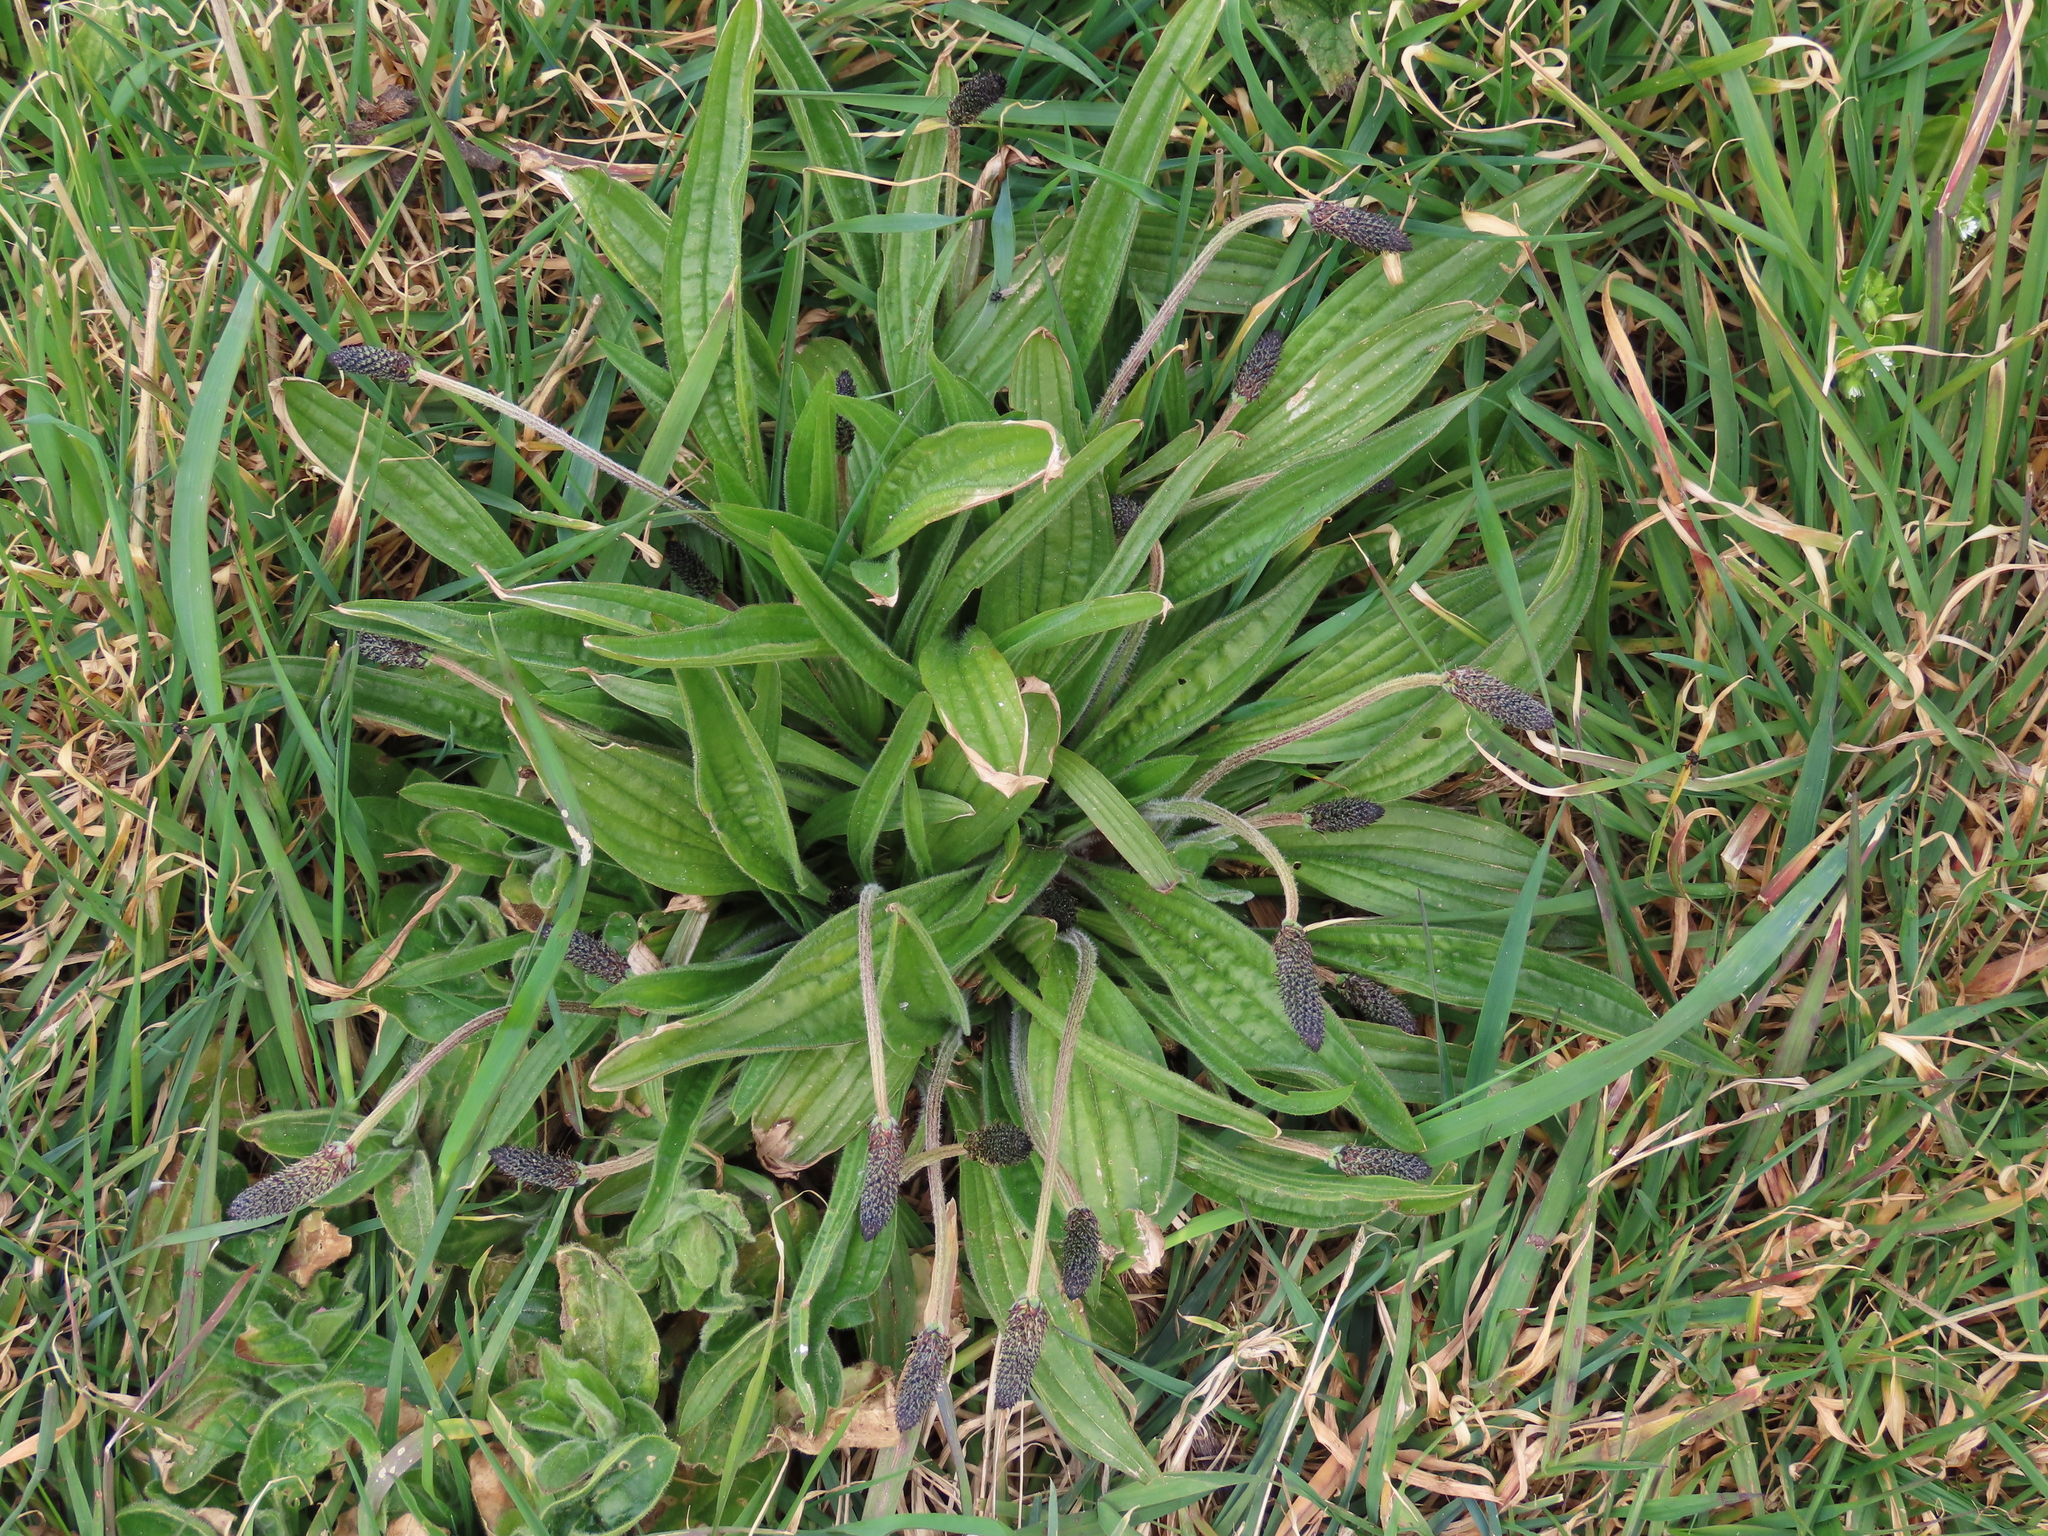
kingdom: Plantae
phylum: Tracheophyta
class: Magnoliopsida
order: Lamiales
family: Plantaginaceae
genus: Plantago
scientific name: Plantago lanceolata
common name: Ribwort plantain
